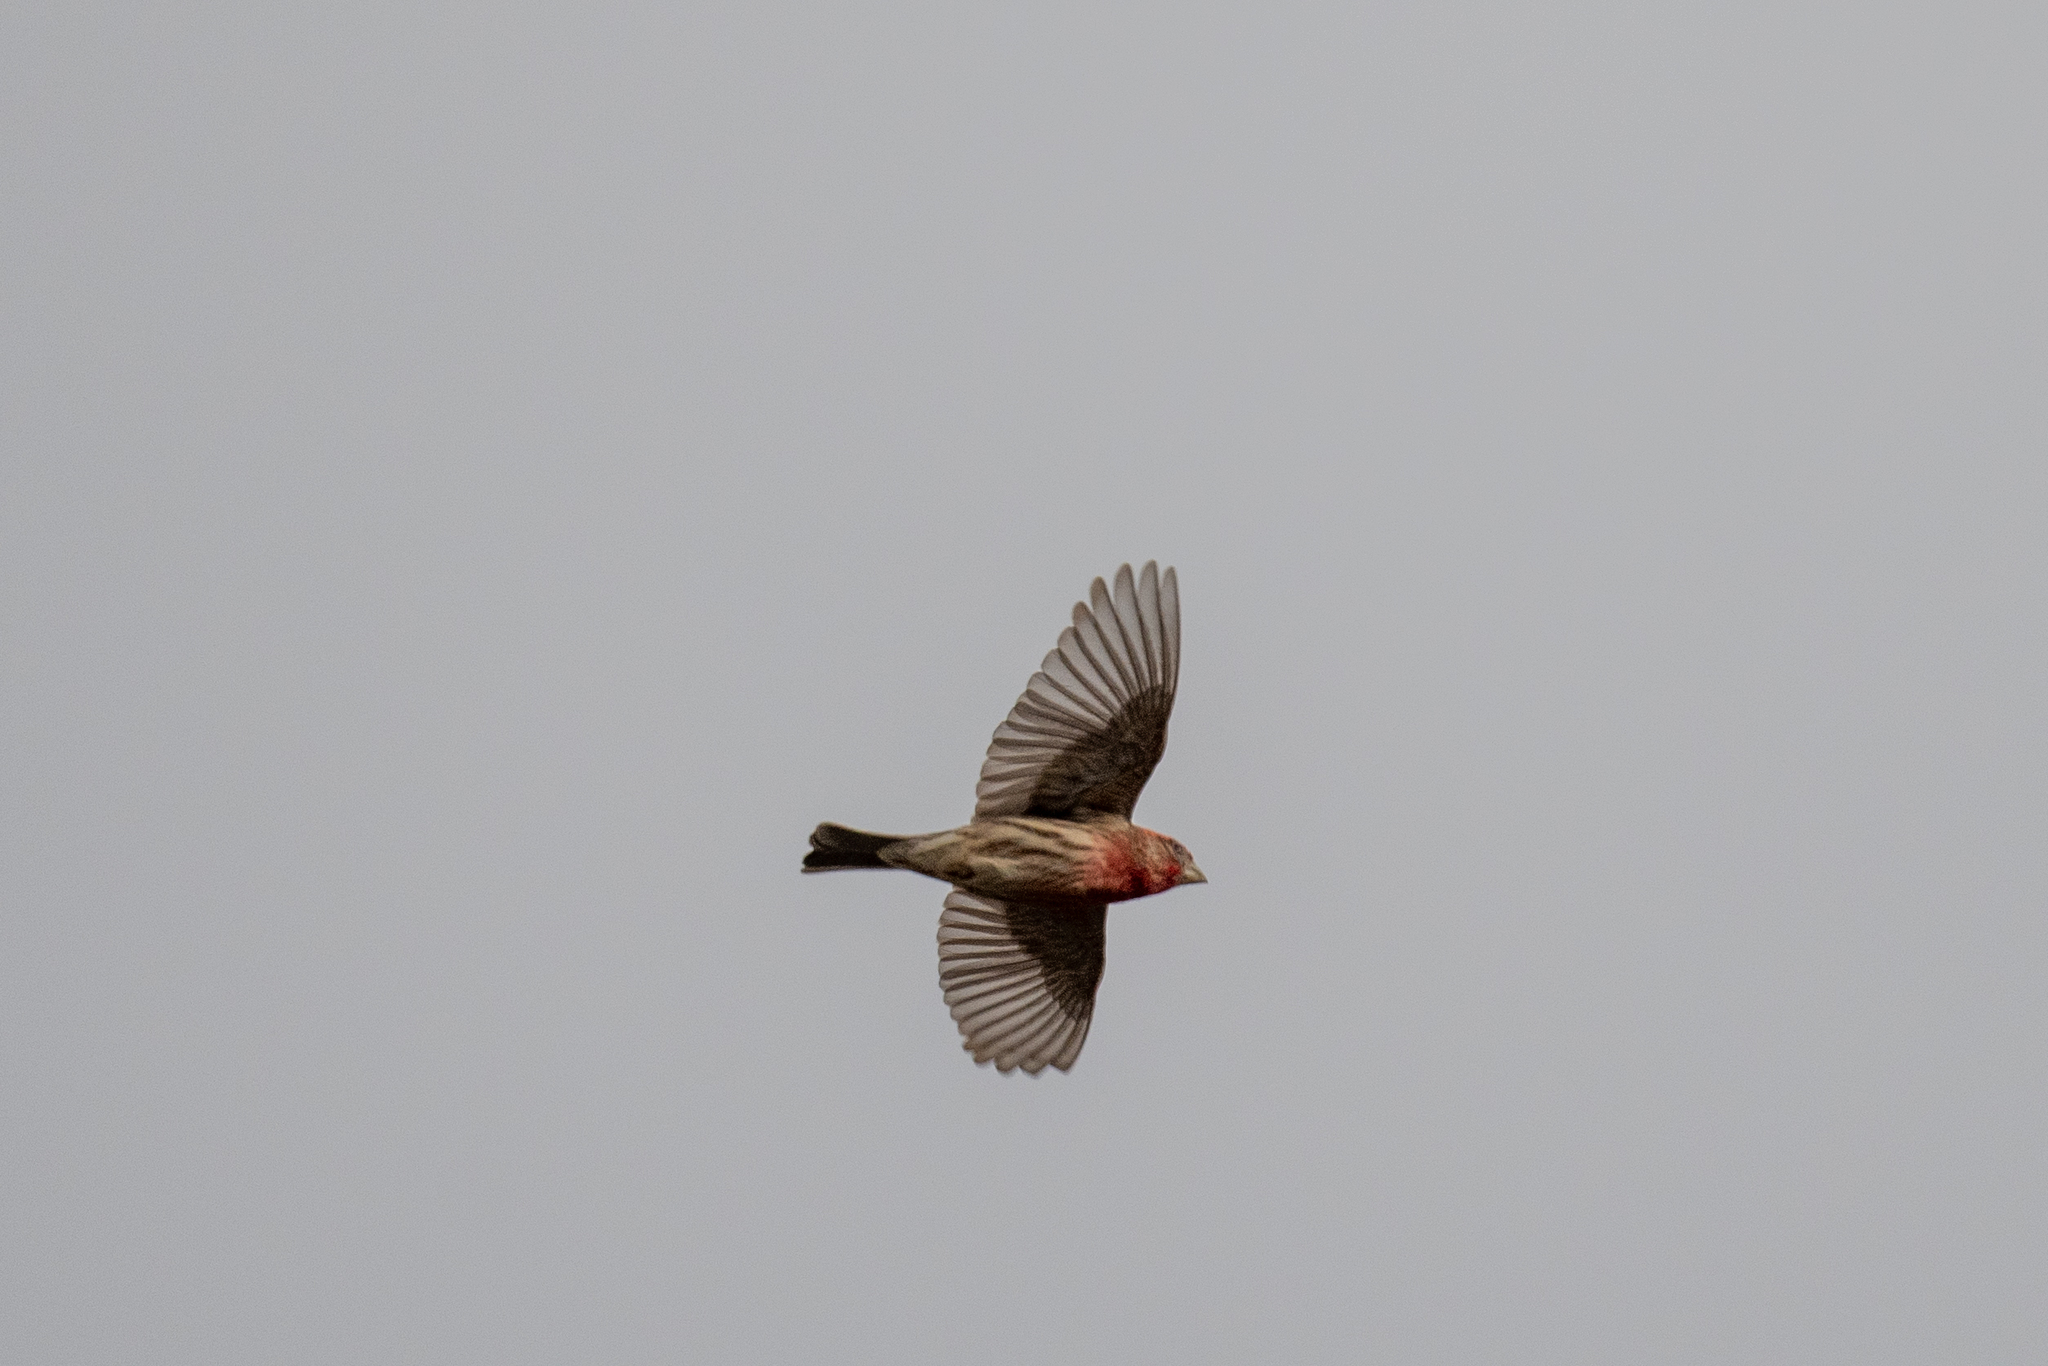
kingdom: Animalia
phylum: Chordata
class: Aves
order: Passeriformes
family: Fringillidae
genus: Haemorhous
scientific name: Haemorhous mexicanus
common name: House finch
